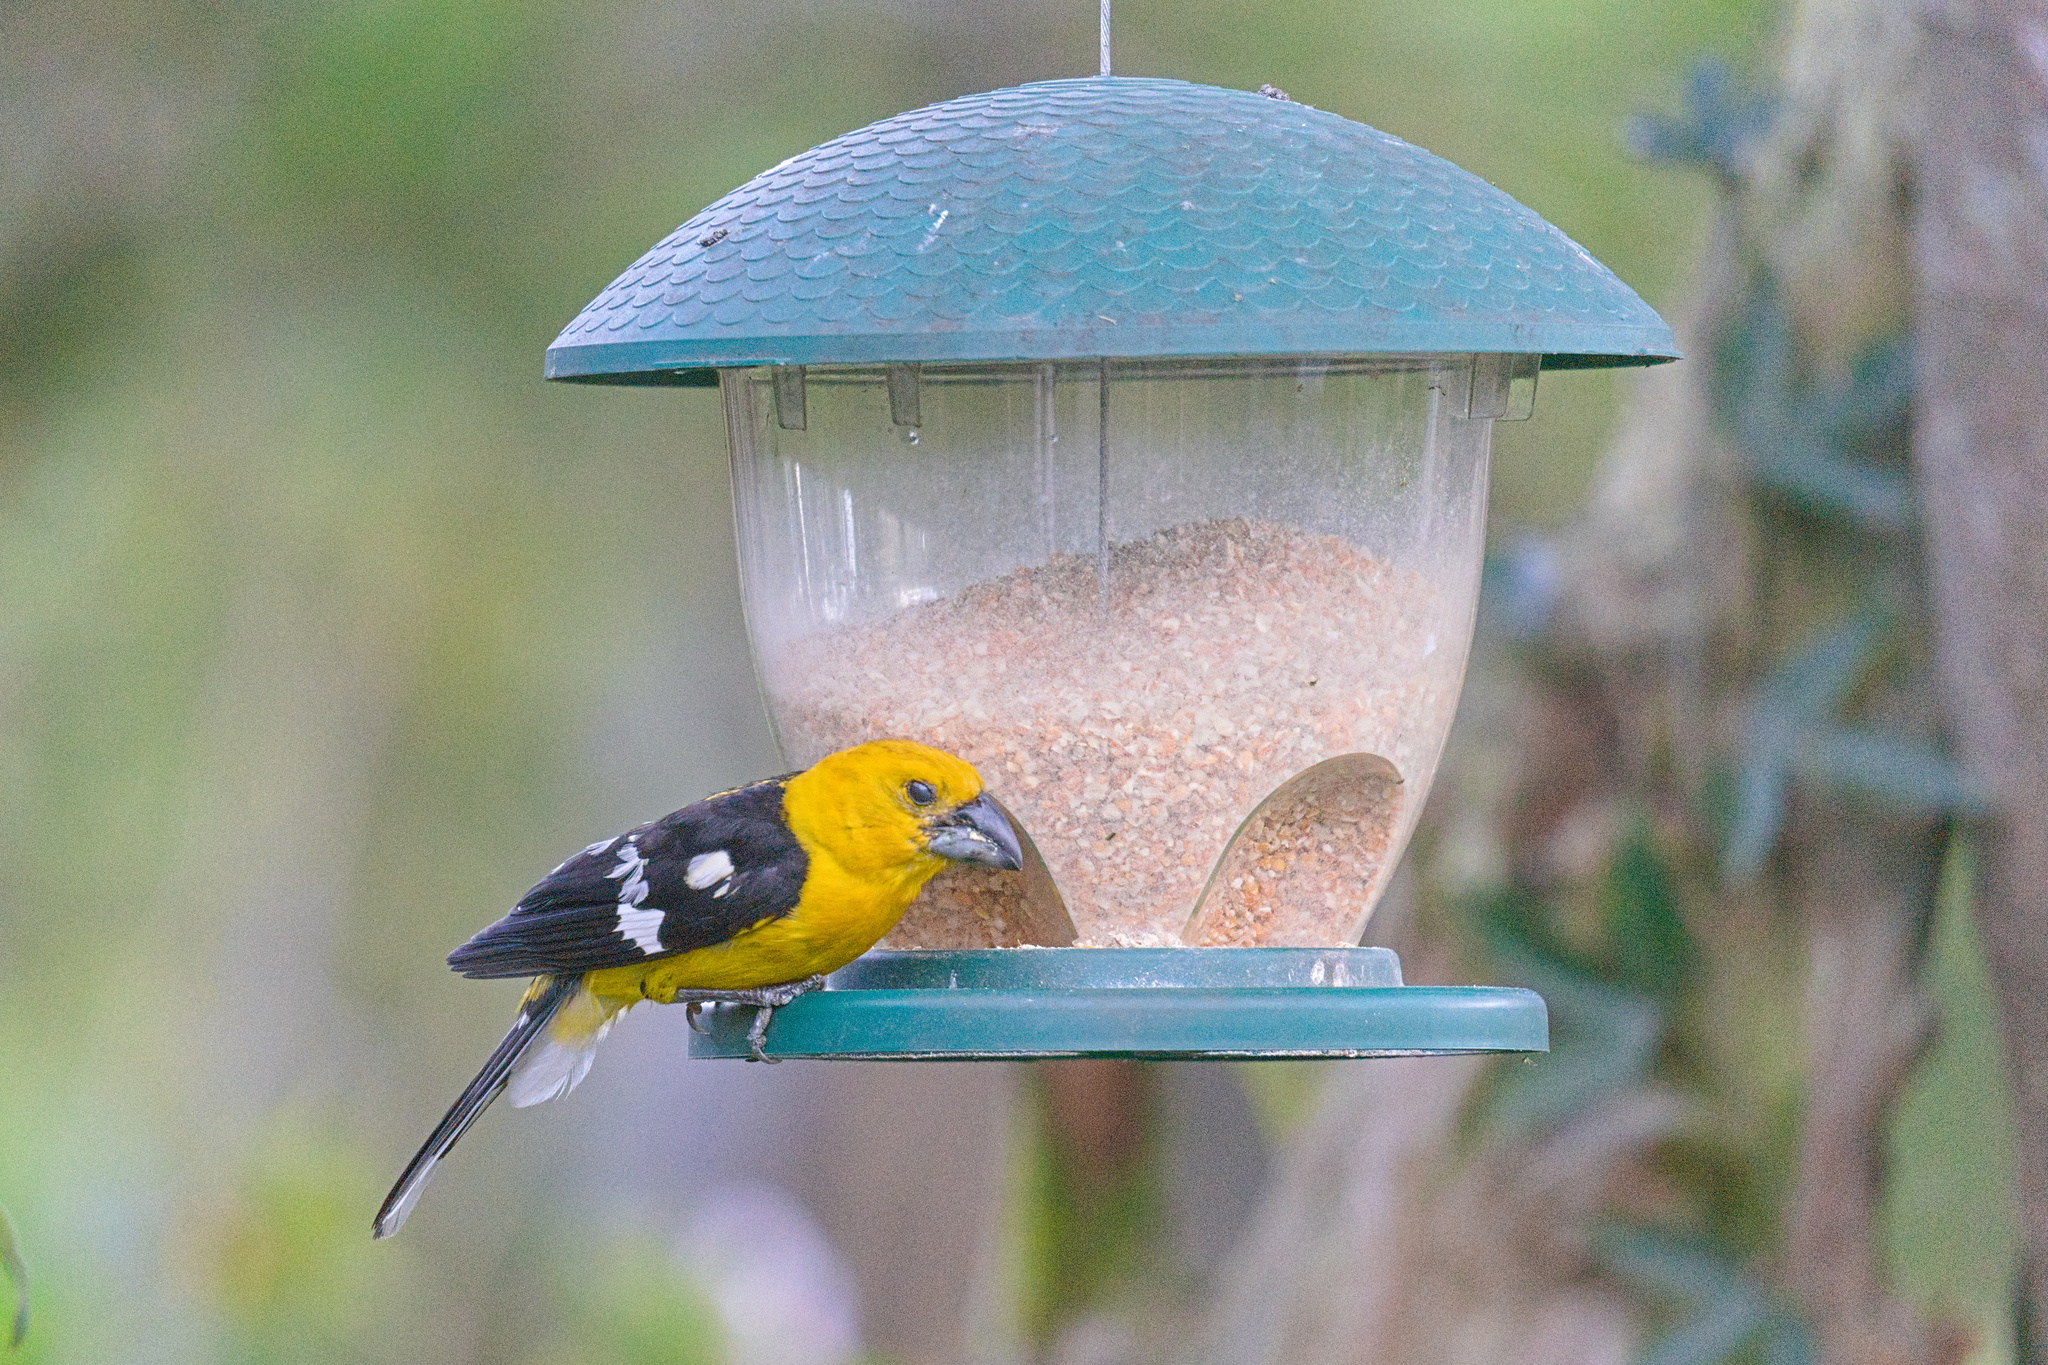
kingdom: Animalia
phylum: Chordata
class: Aves
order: Passeriformes
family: Cardinalidae
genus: Pheucticus
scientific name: Pheucticus chrysogaster
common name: Golden grosbeak
